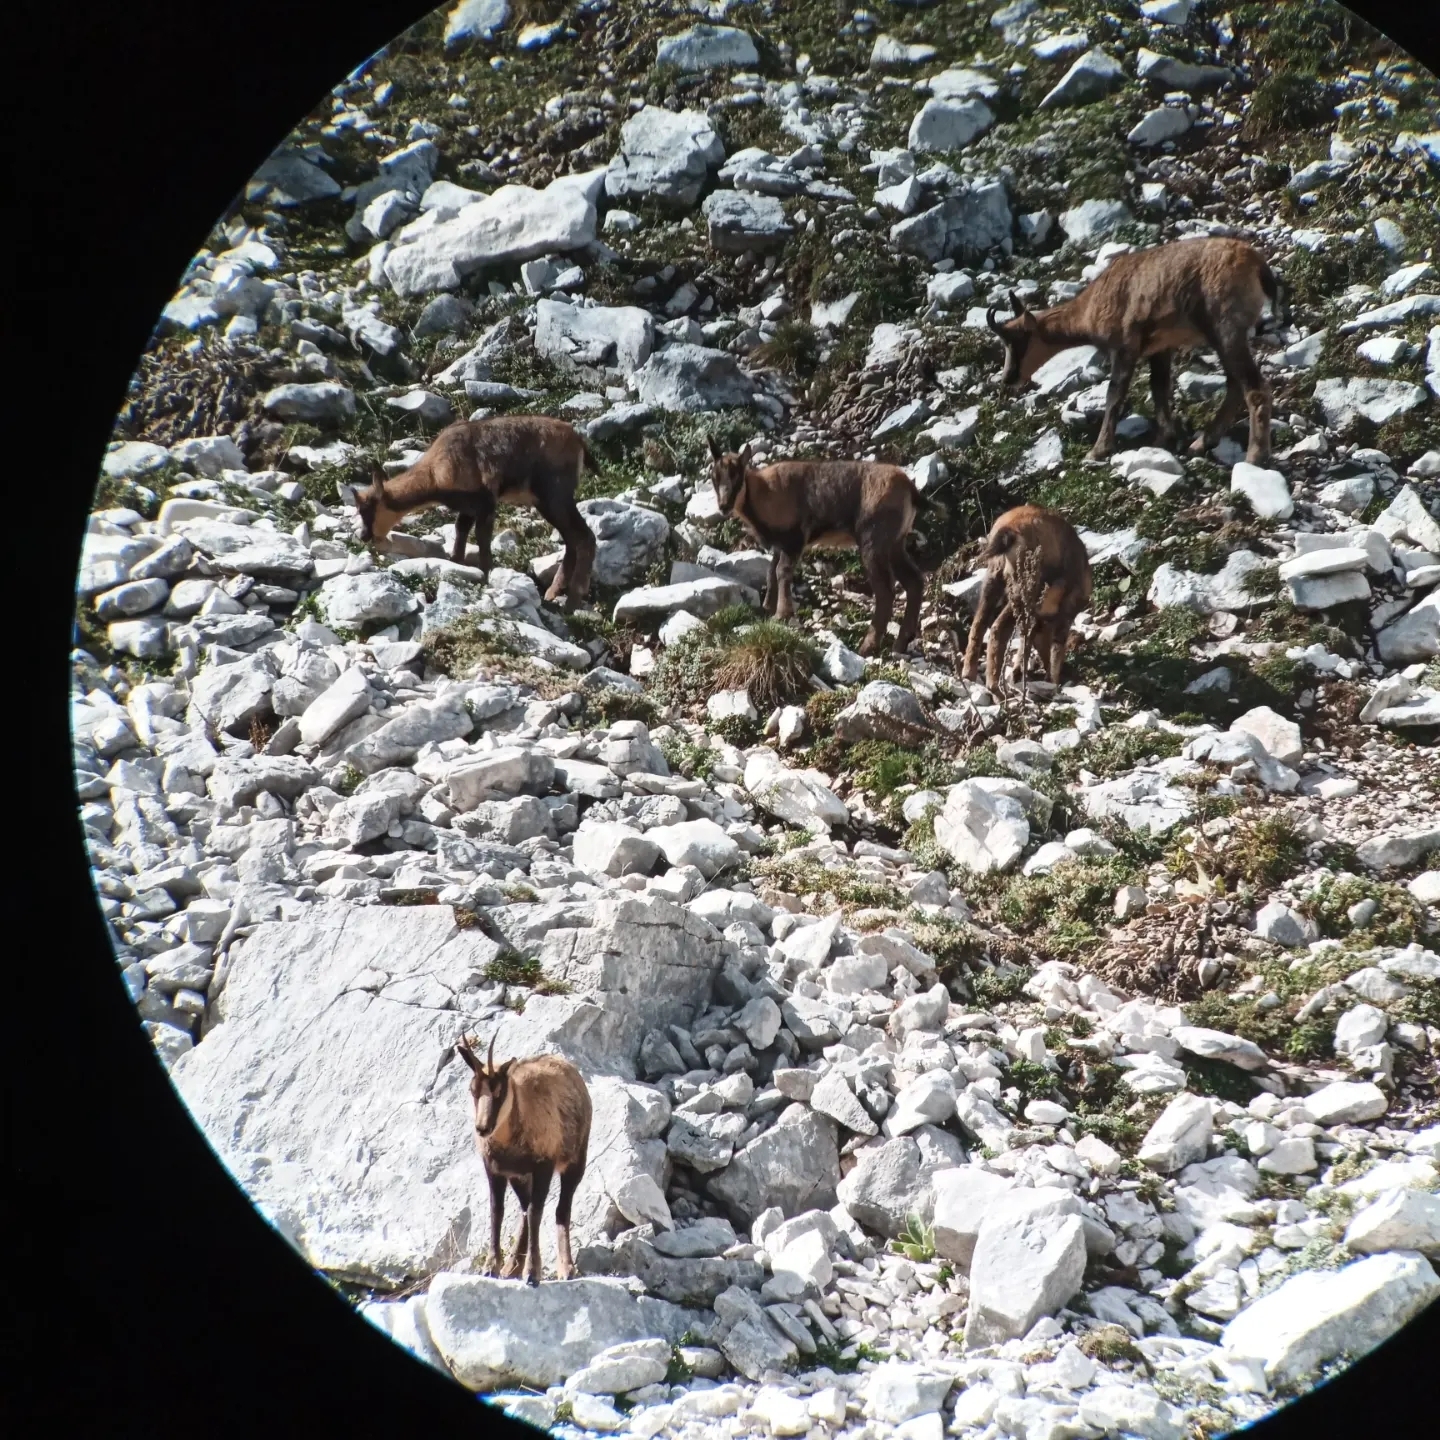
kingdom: Animalia
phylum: Chordata
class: Mammalia
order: Artiodactyla
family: Bovidae
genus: Rupicapra
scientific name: Rupicapra pyrenaica
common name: Pyrenean chamois
